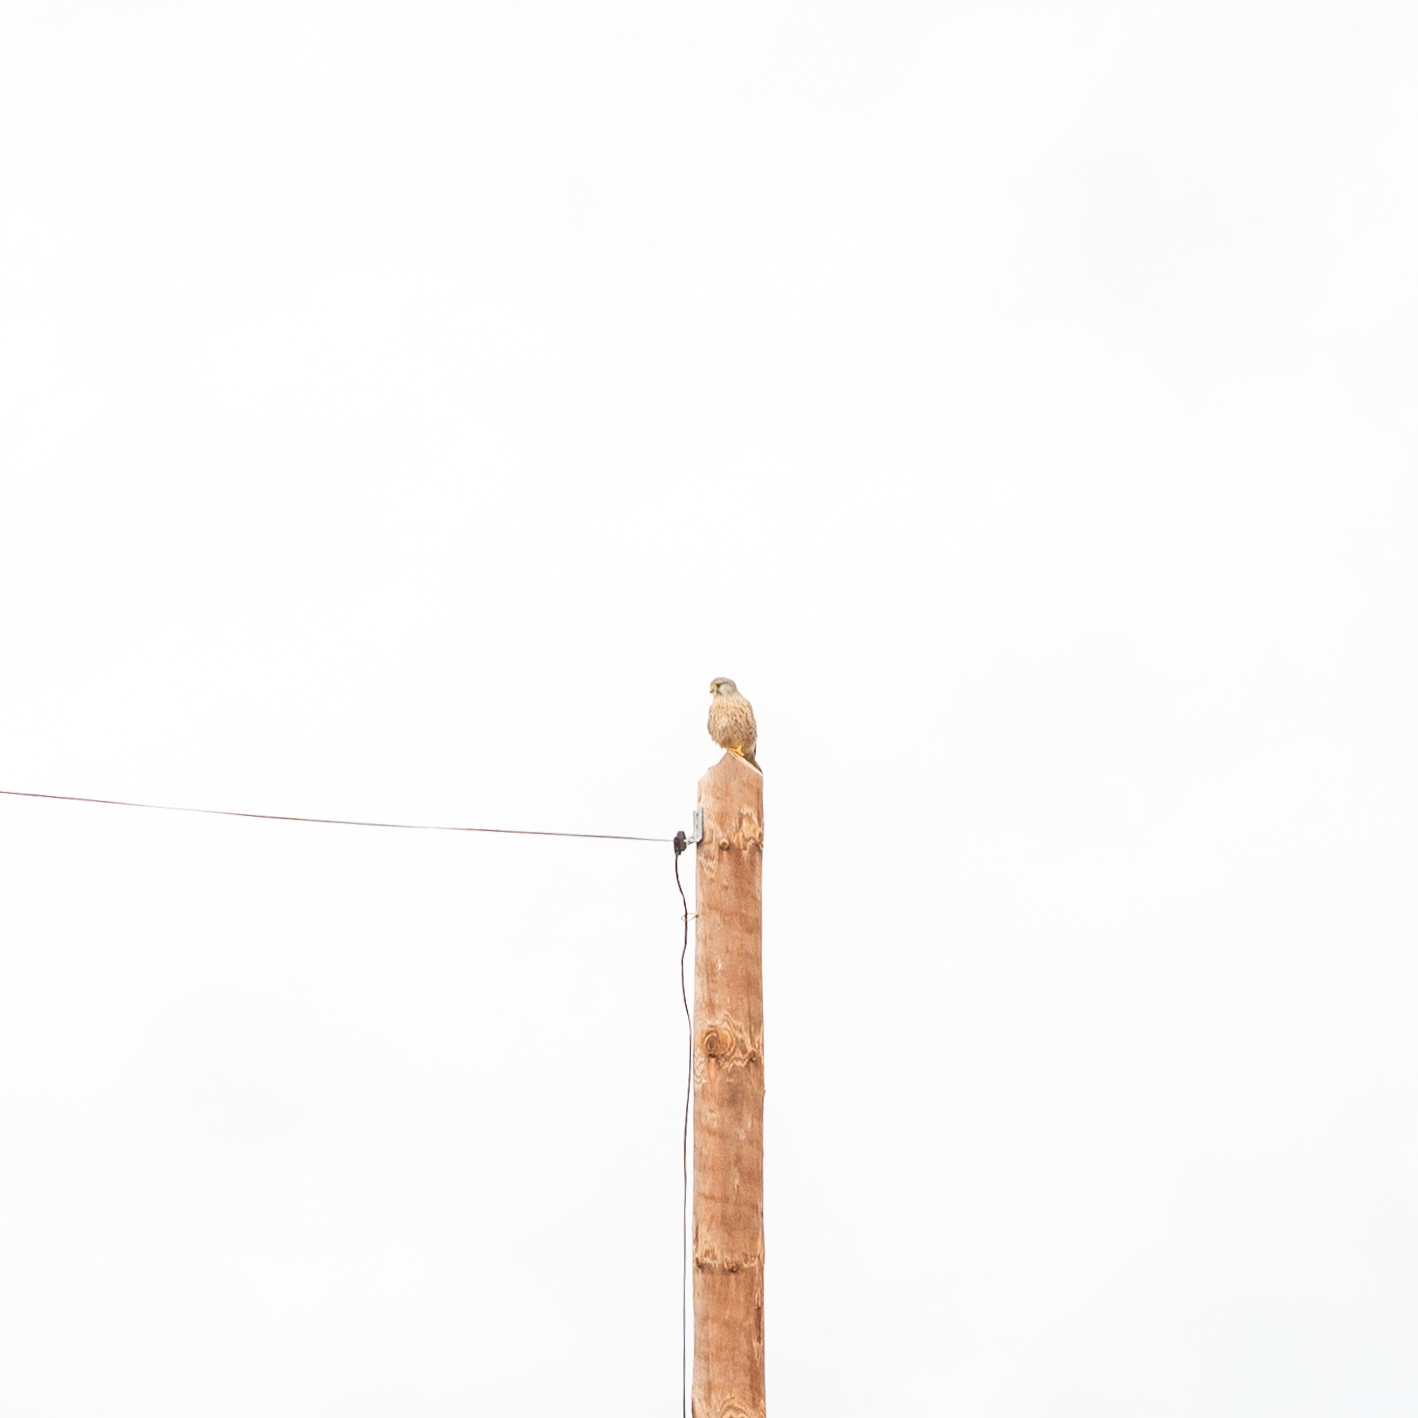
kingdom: Animalia
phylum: Chordata
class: Aves
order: Falconiformes
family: Falconidae
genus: Falco
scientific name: Falco tinnunculus
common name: Common kestrel
